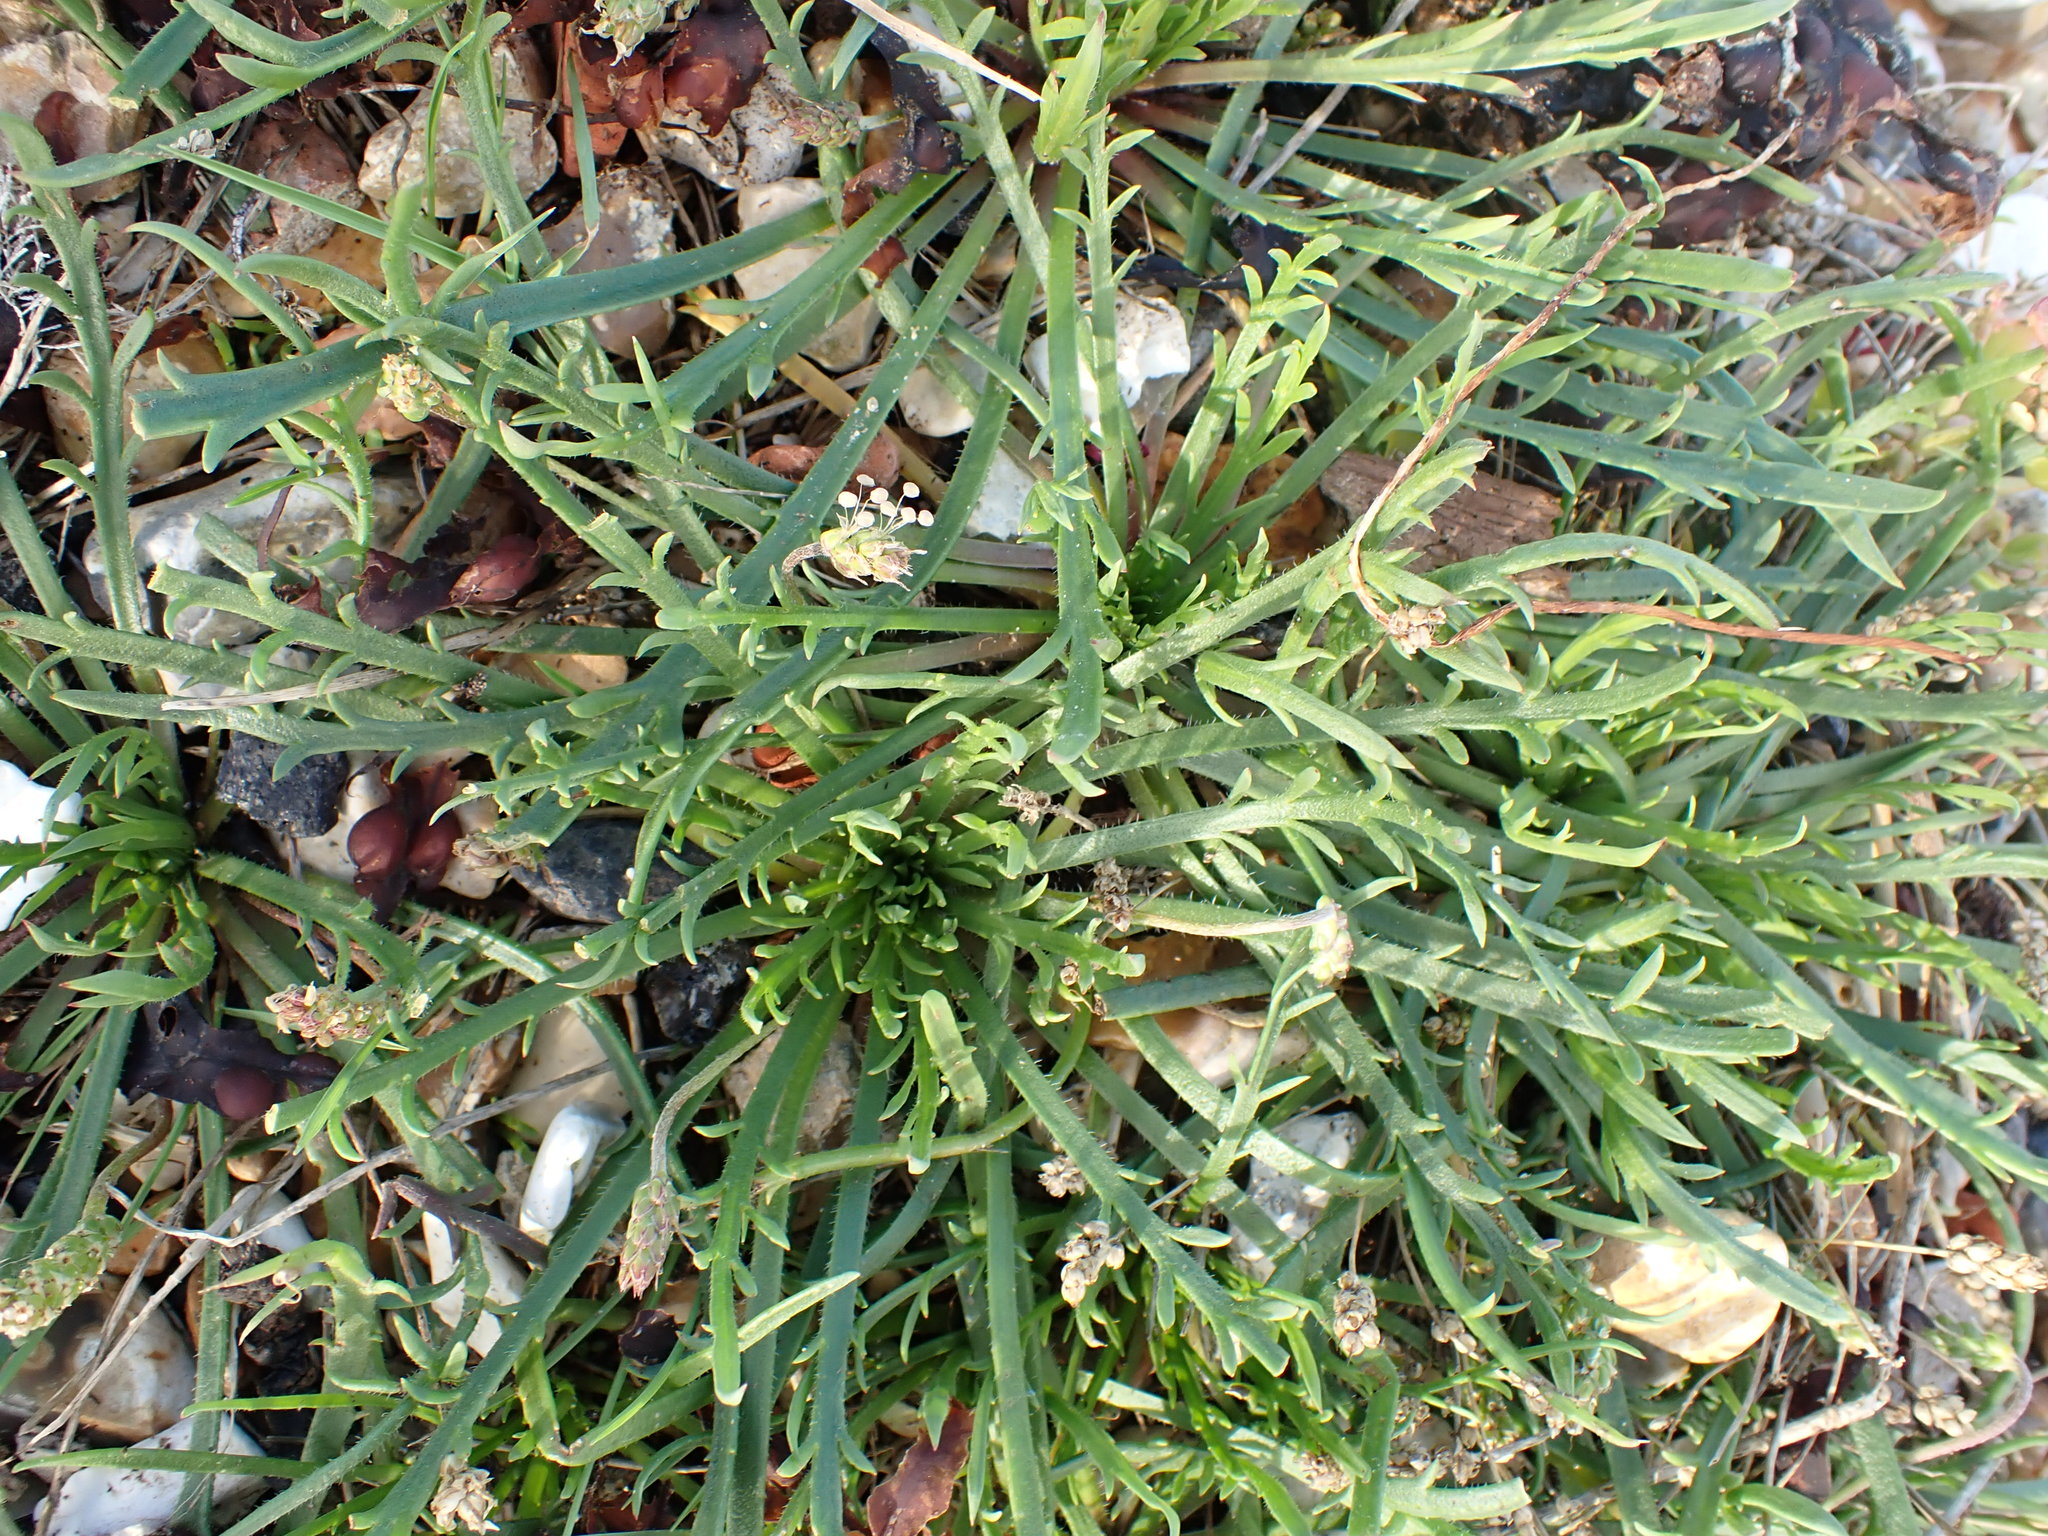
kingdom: Plantae
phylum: Tracheophyta
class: Magnoliopsida
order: Lamiales
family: Plantaginaceae
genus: Plantago
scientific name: Plantago coronopus
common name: Buck's-horn plantain
